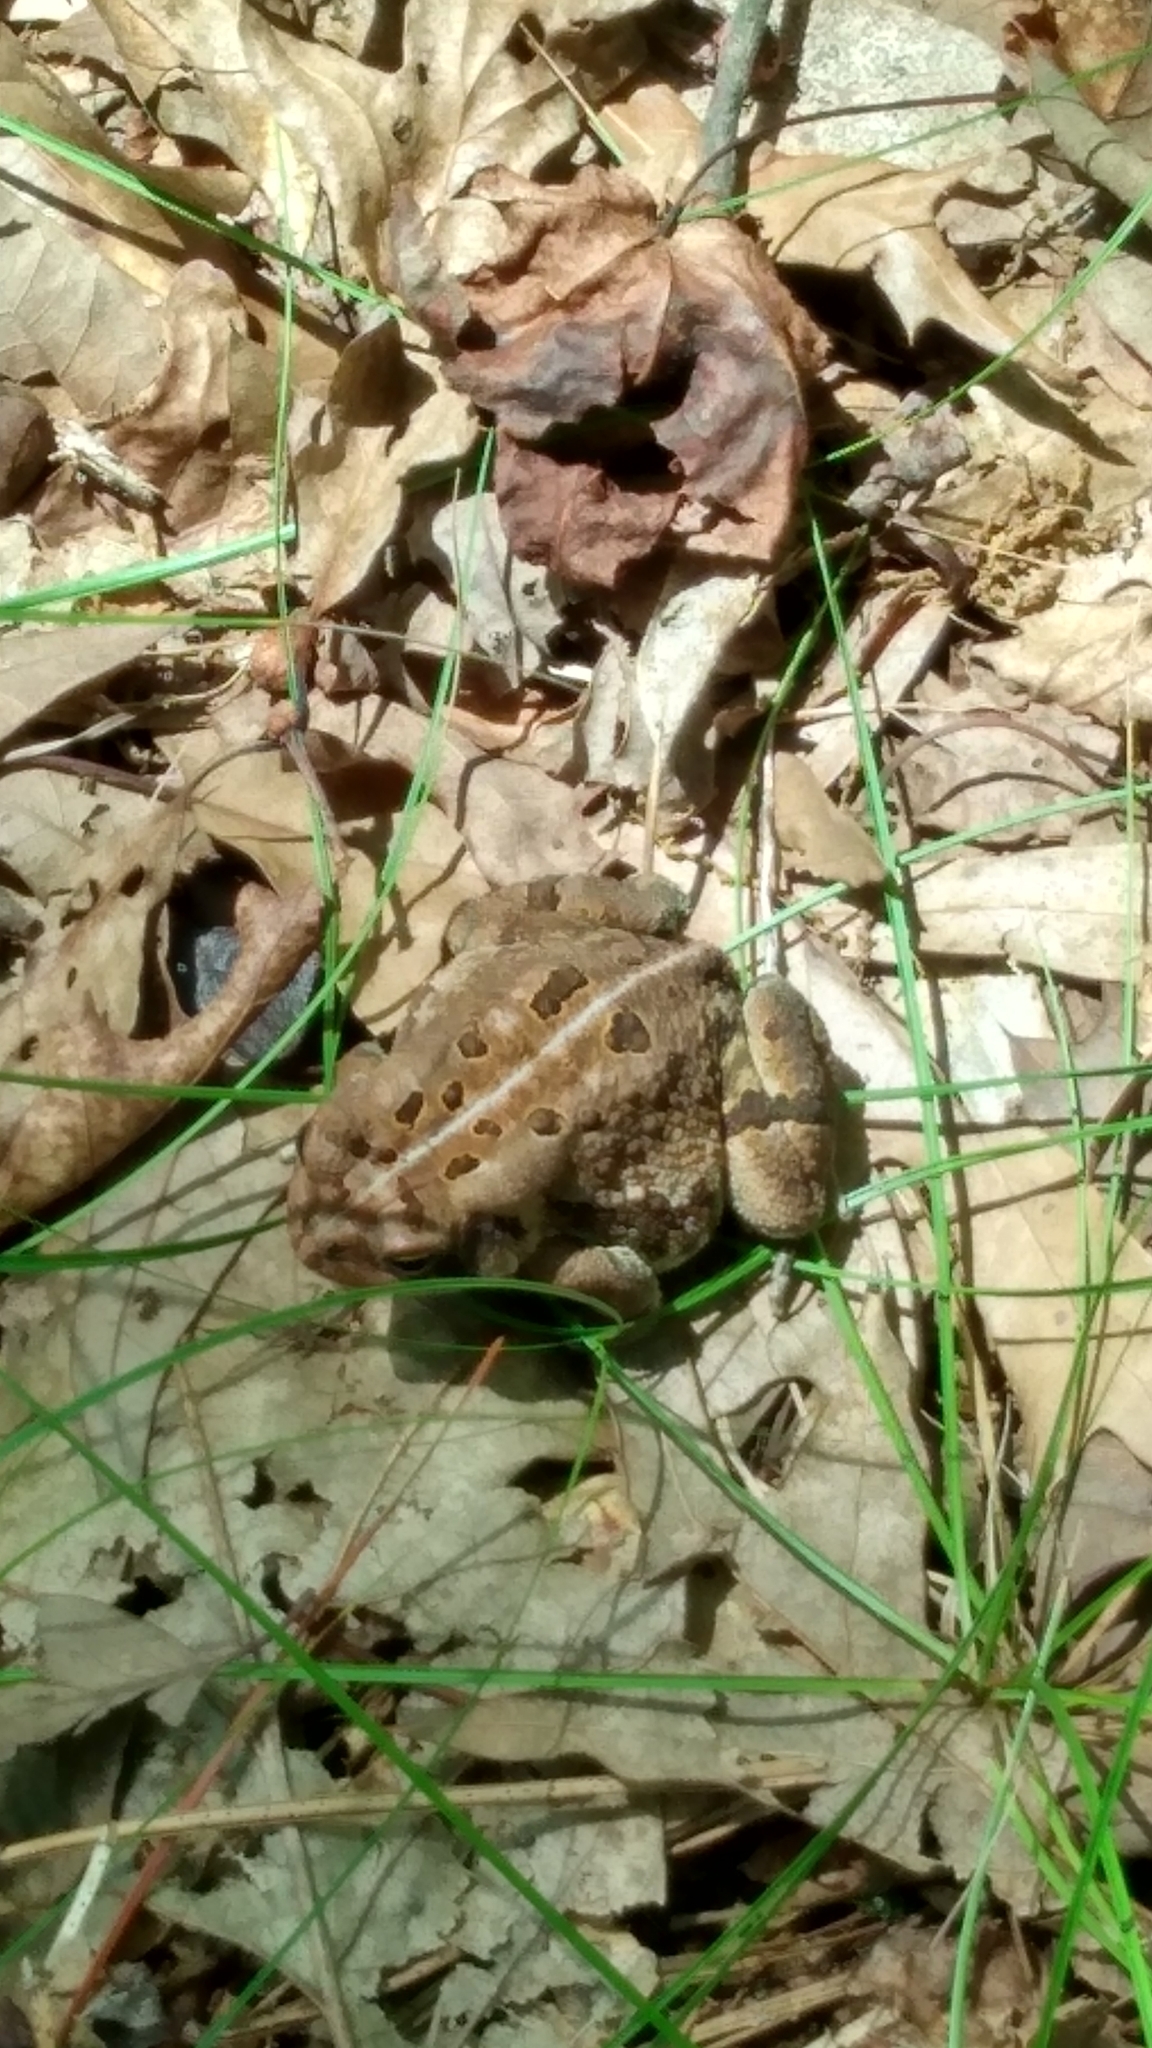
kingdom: Animalia
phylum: Chordata
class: Amphibia
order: Anura
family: Bufonidae
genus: Anaxyrus
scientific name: Anaxyrus fowleri
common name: Fowler's toad
